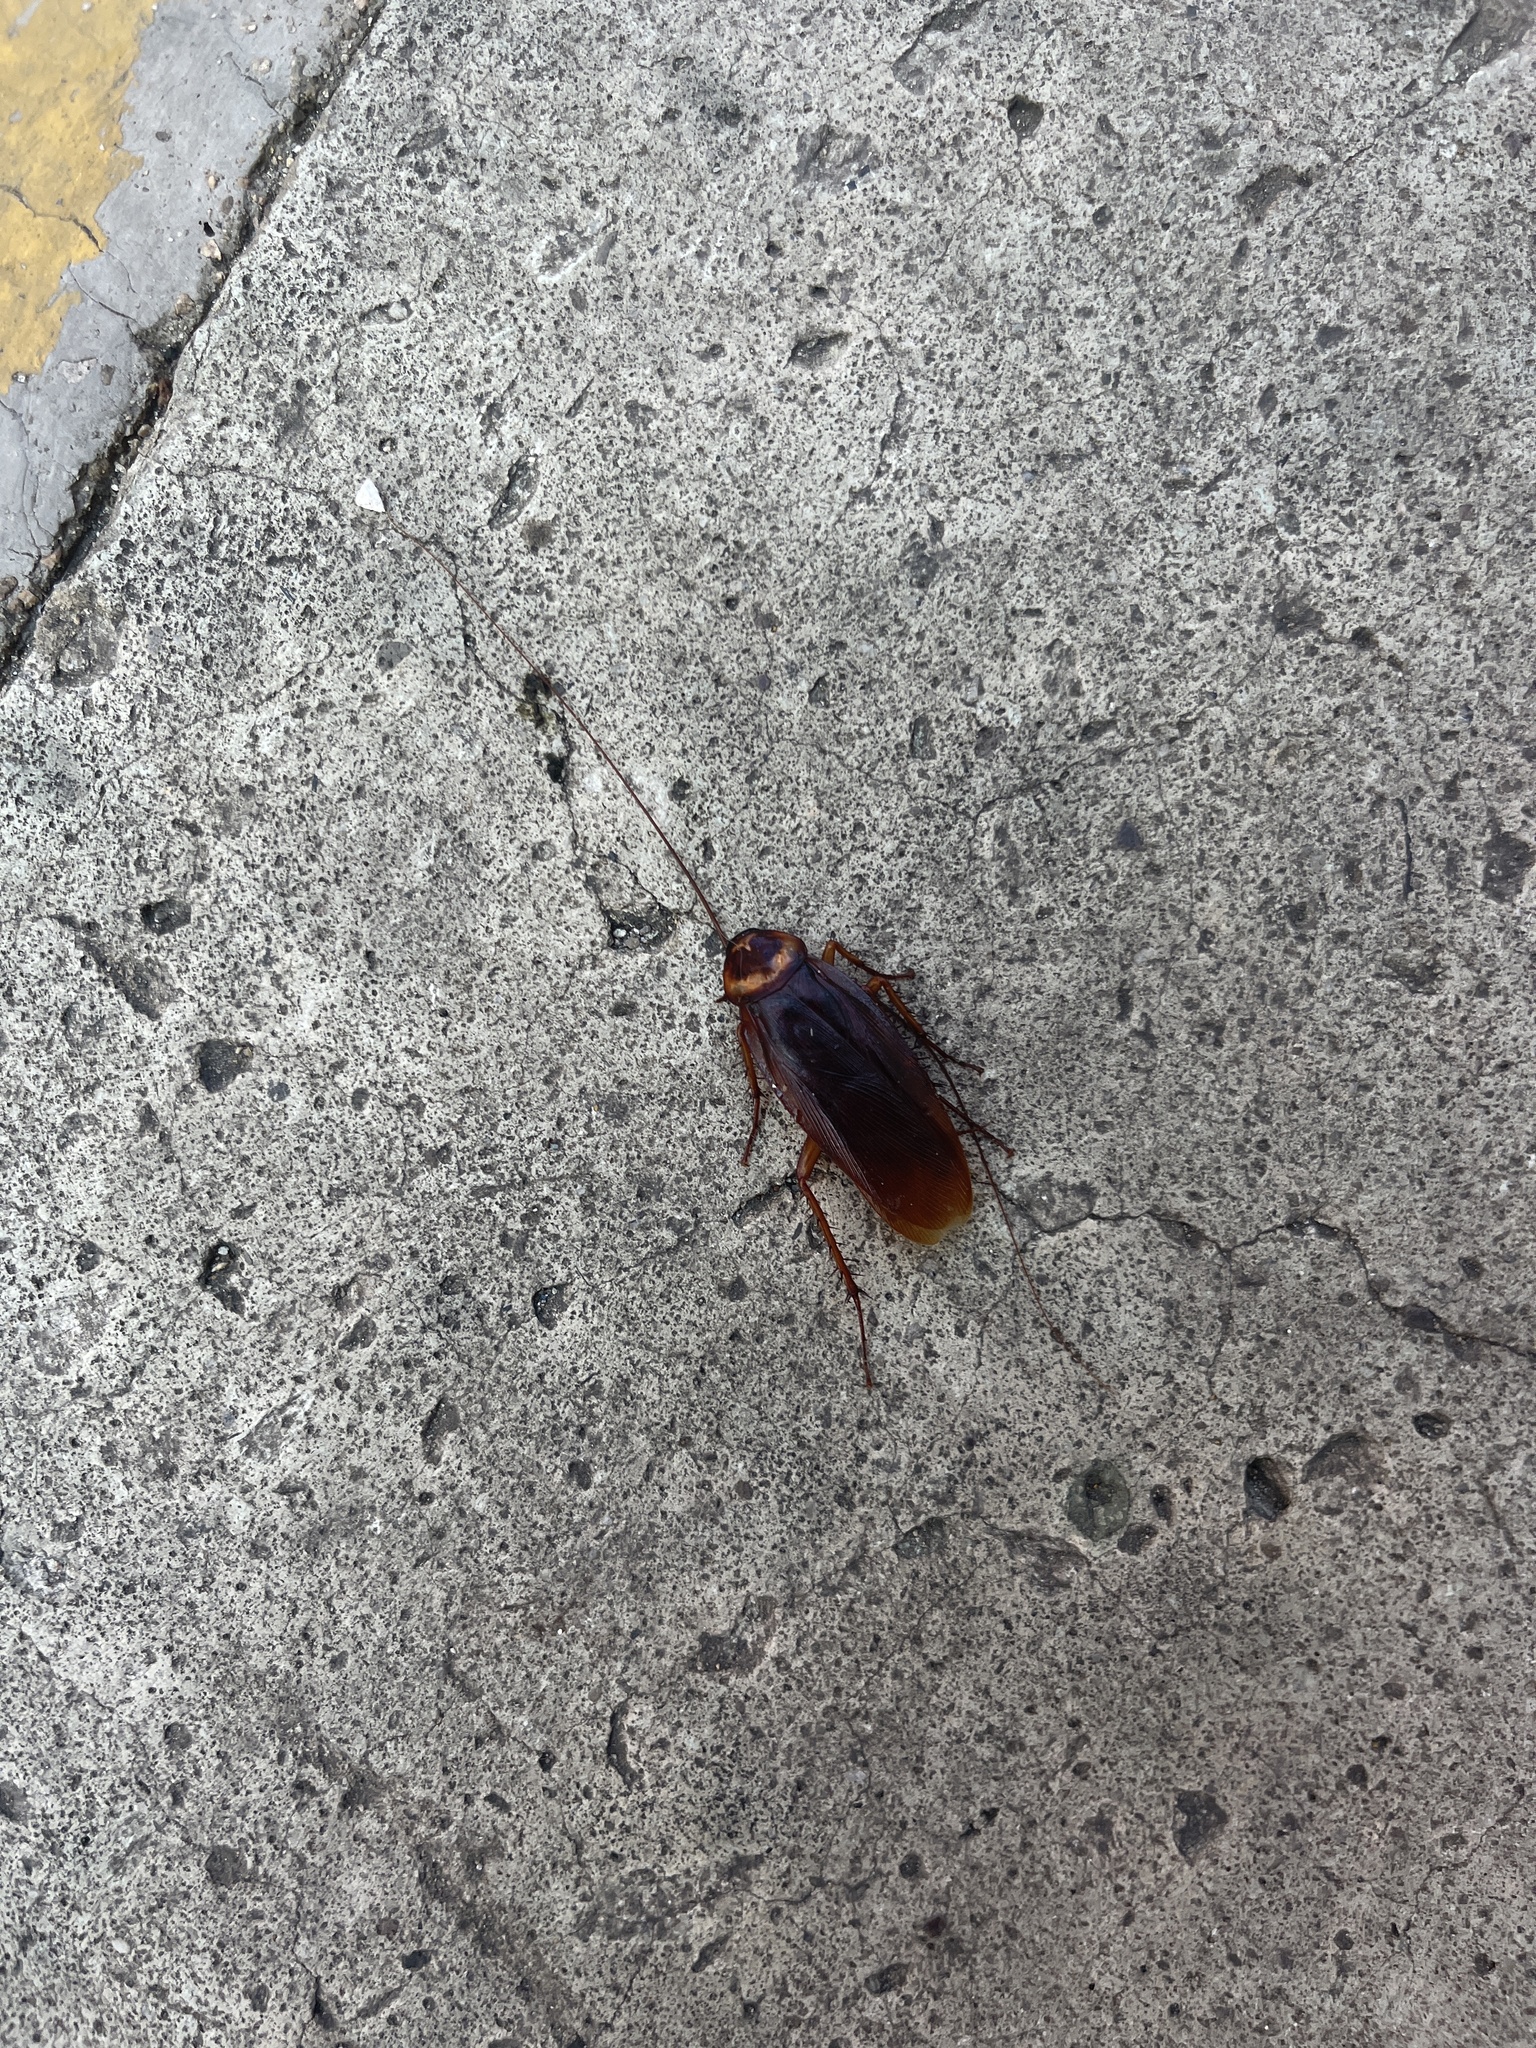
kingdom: Animalia
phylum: Arthropoda
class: Insecta
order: Blattodea
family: Blattidae
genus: Periplaneta
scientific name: Periplaneta americana
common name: American cockroach
